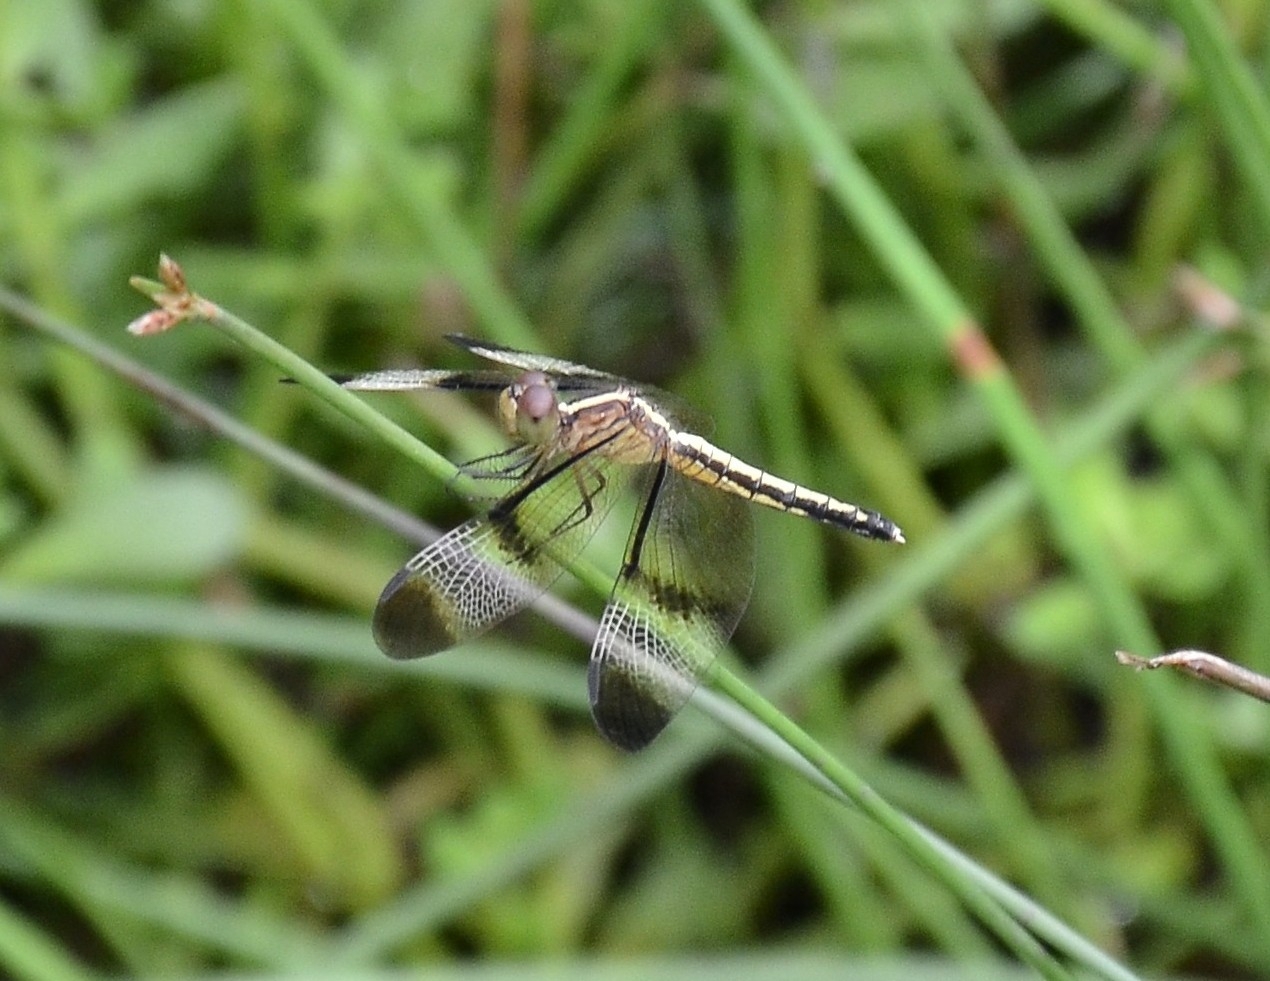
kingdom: Animalia
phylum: Arthropoda
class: Insecta
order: Odonata
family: Libellulidae
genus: Neurothemis
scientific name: Neurothemis tullia
